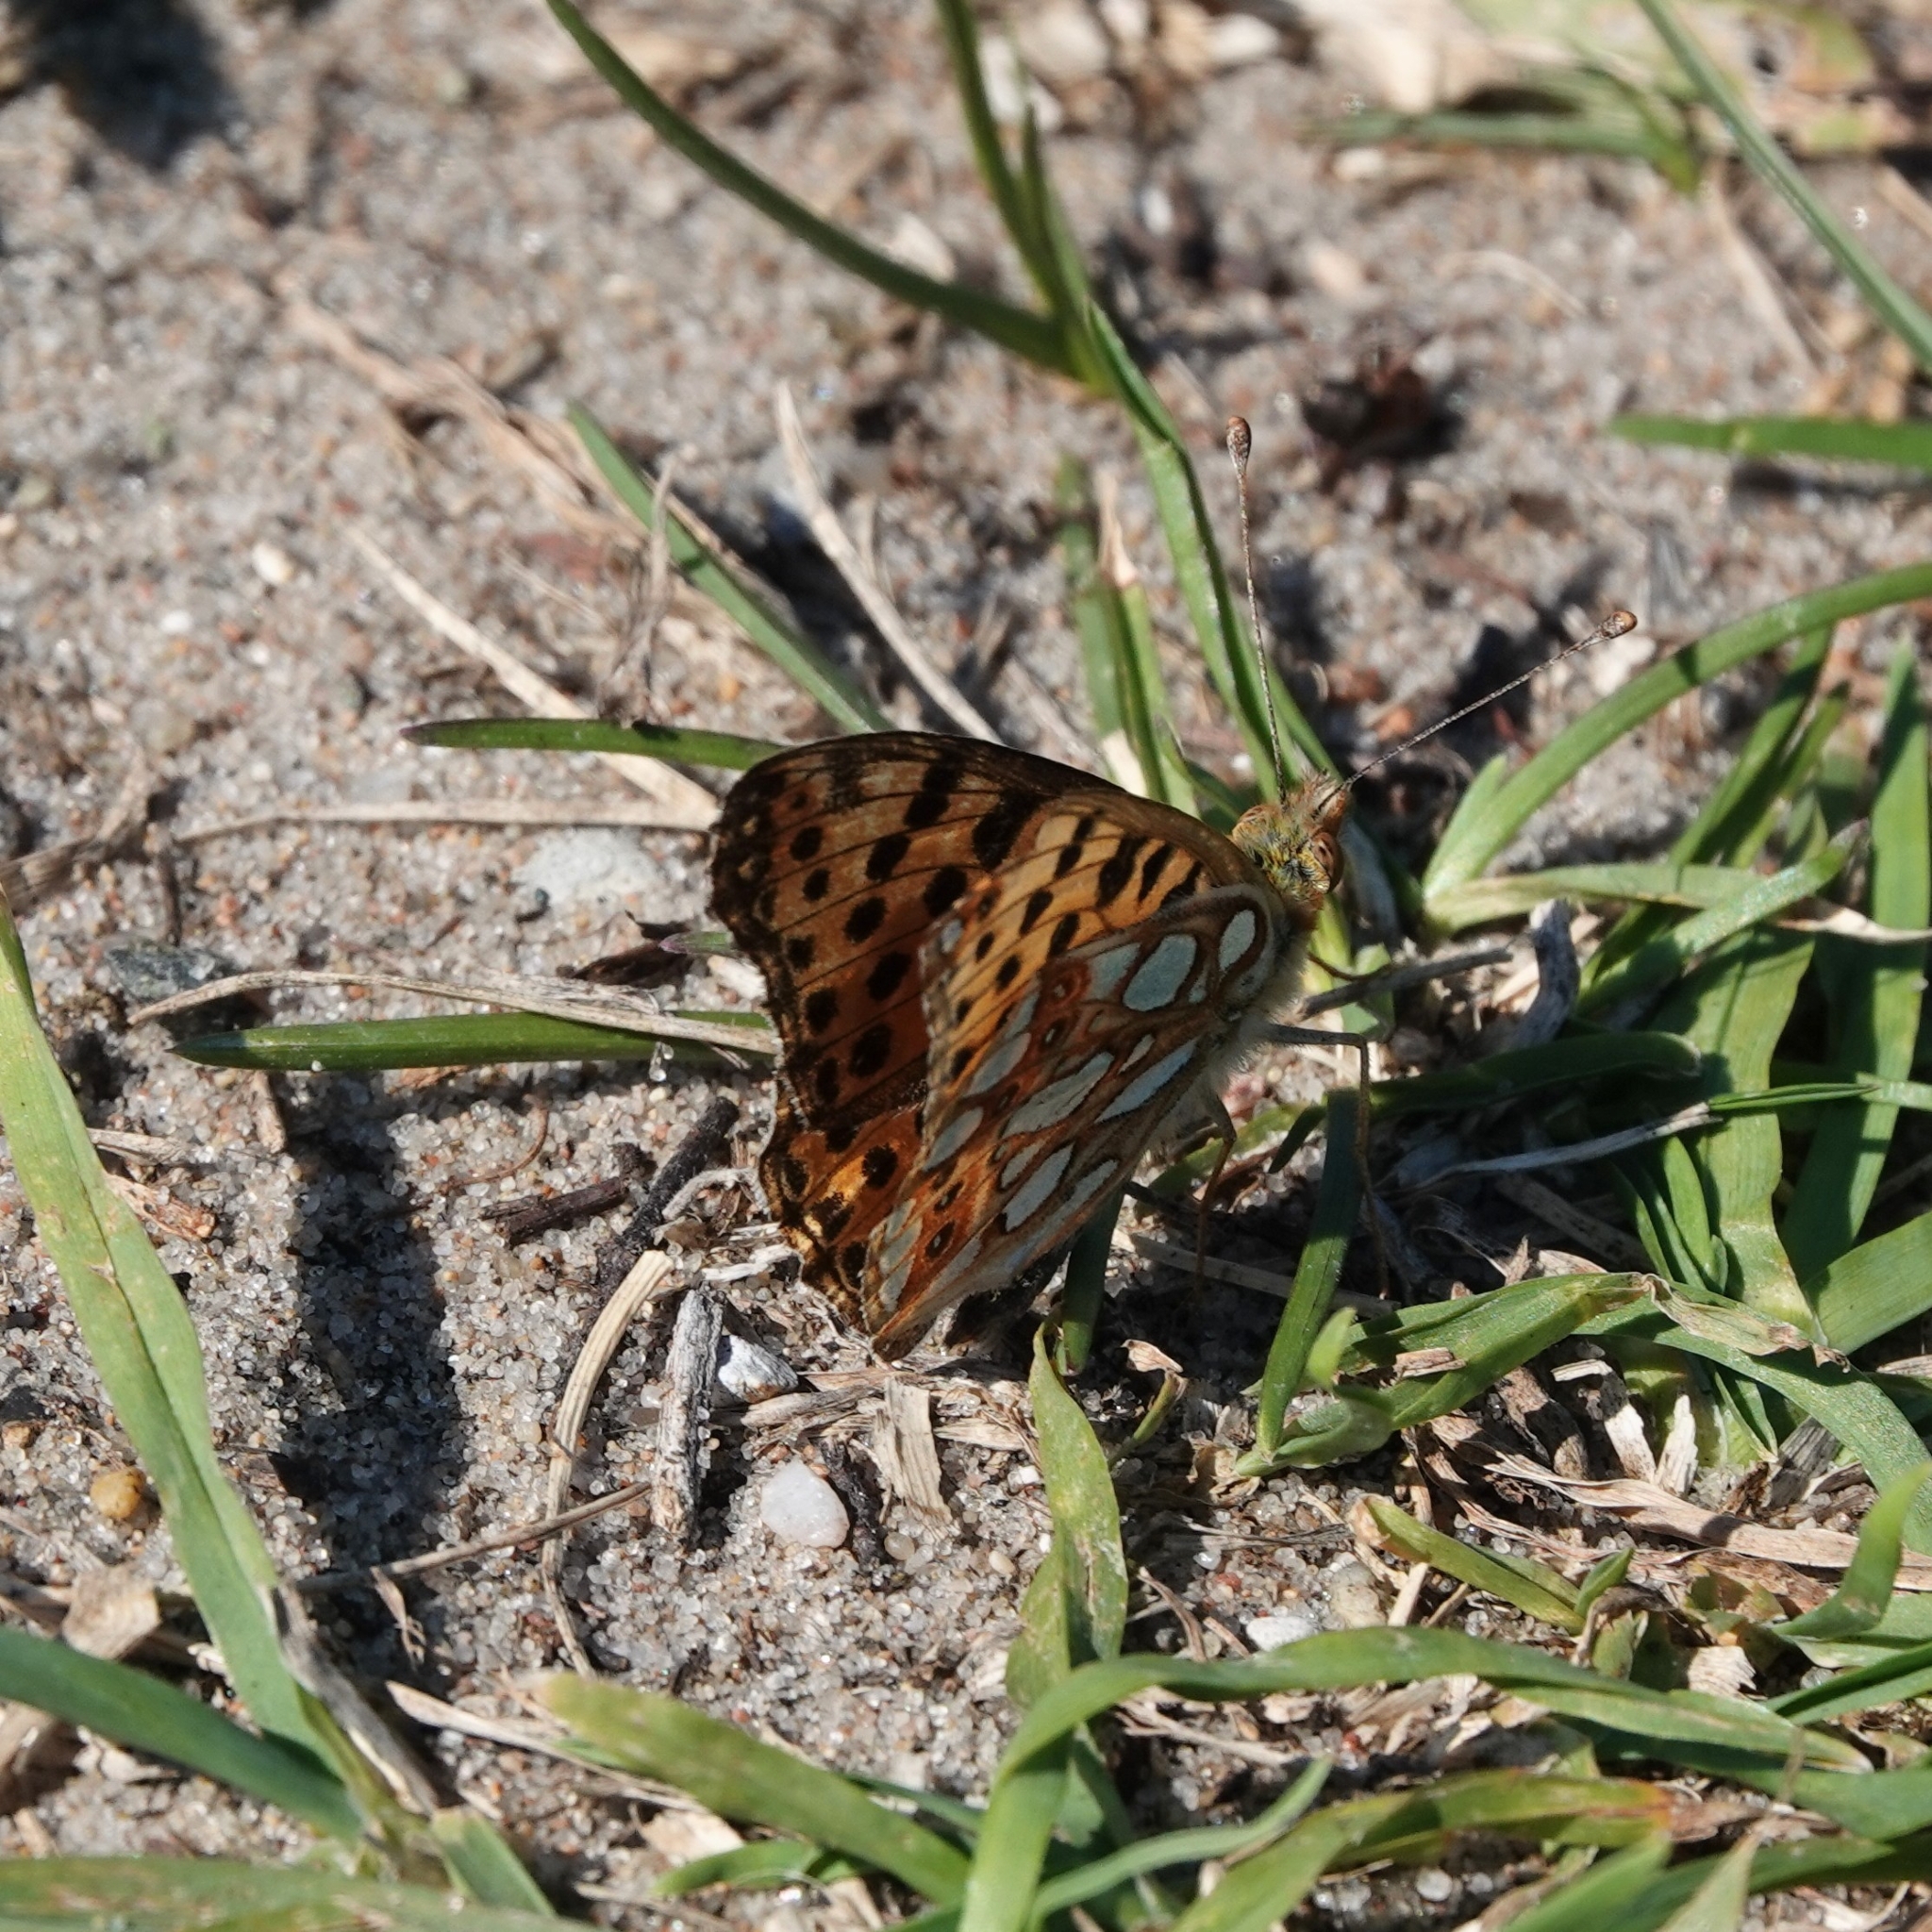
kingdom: Animalia
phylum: Arthropoda
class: Insecta
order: Lepidoptera
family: Nymphalidae
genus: Issoria
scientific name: Issoria lathonia
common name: Queen of spain fritillary
